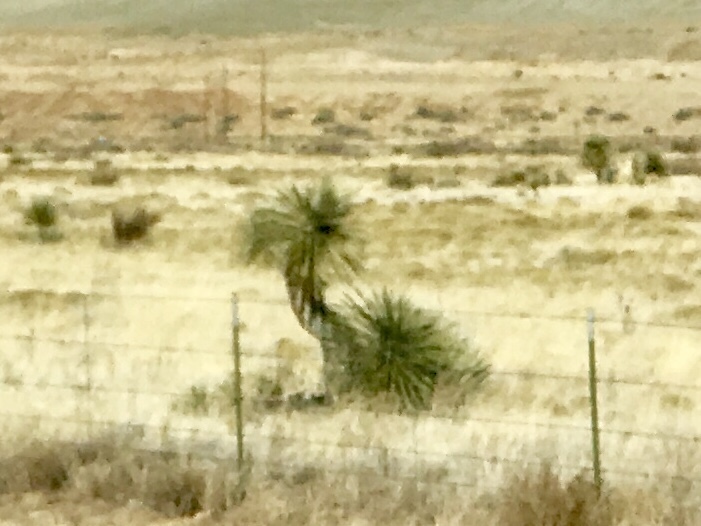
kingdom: Plantae
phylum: Tracheophyta
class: Liliopsida
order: Asparagales
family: Asparagaceae
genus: Yucca
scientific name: Yucca elata
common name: Palmella
